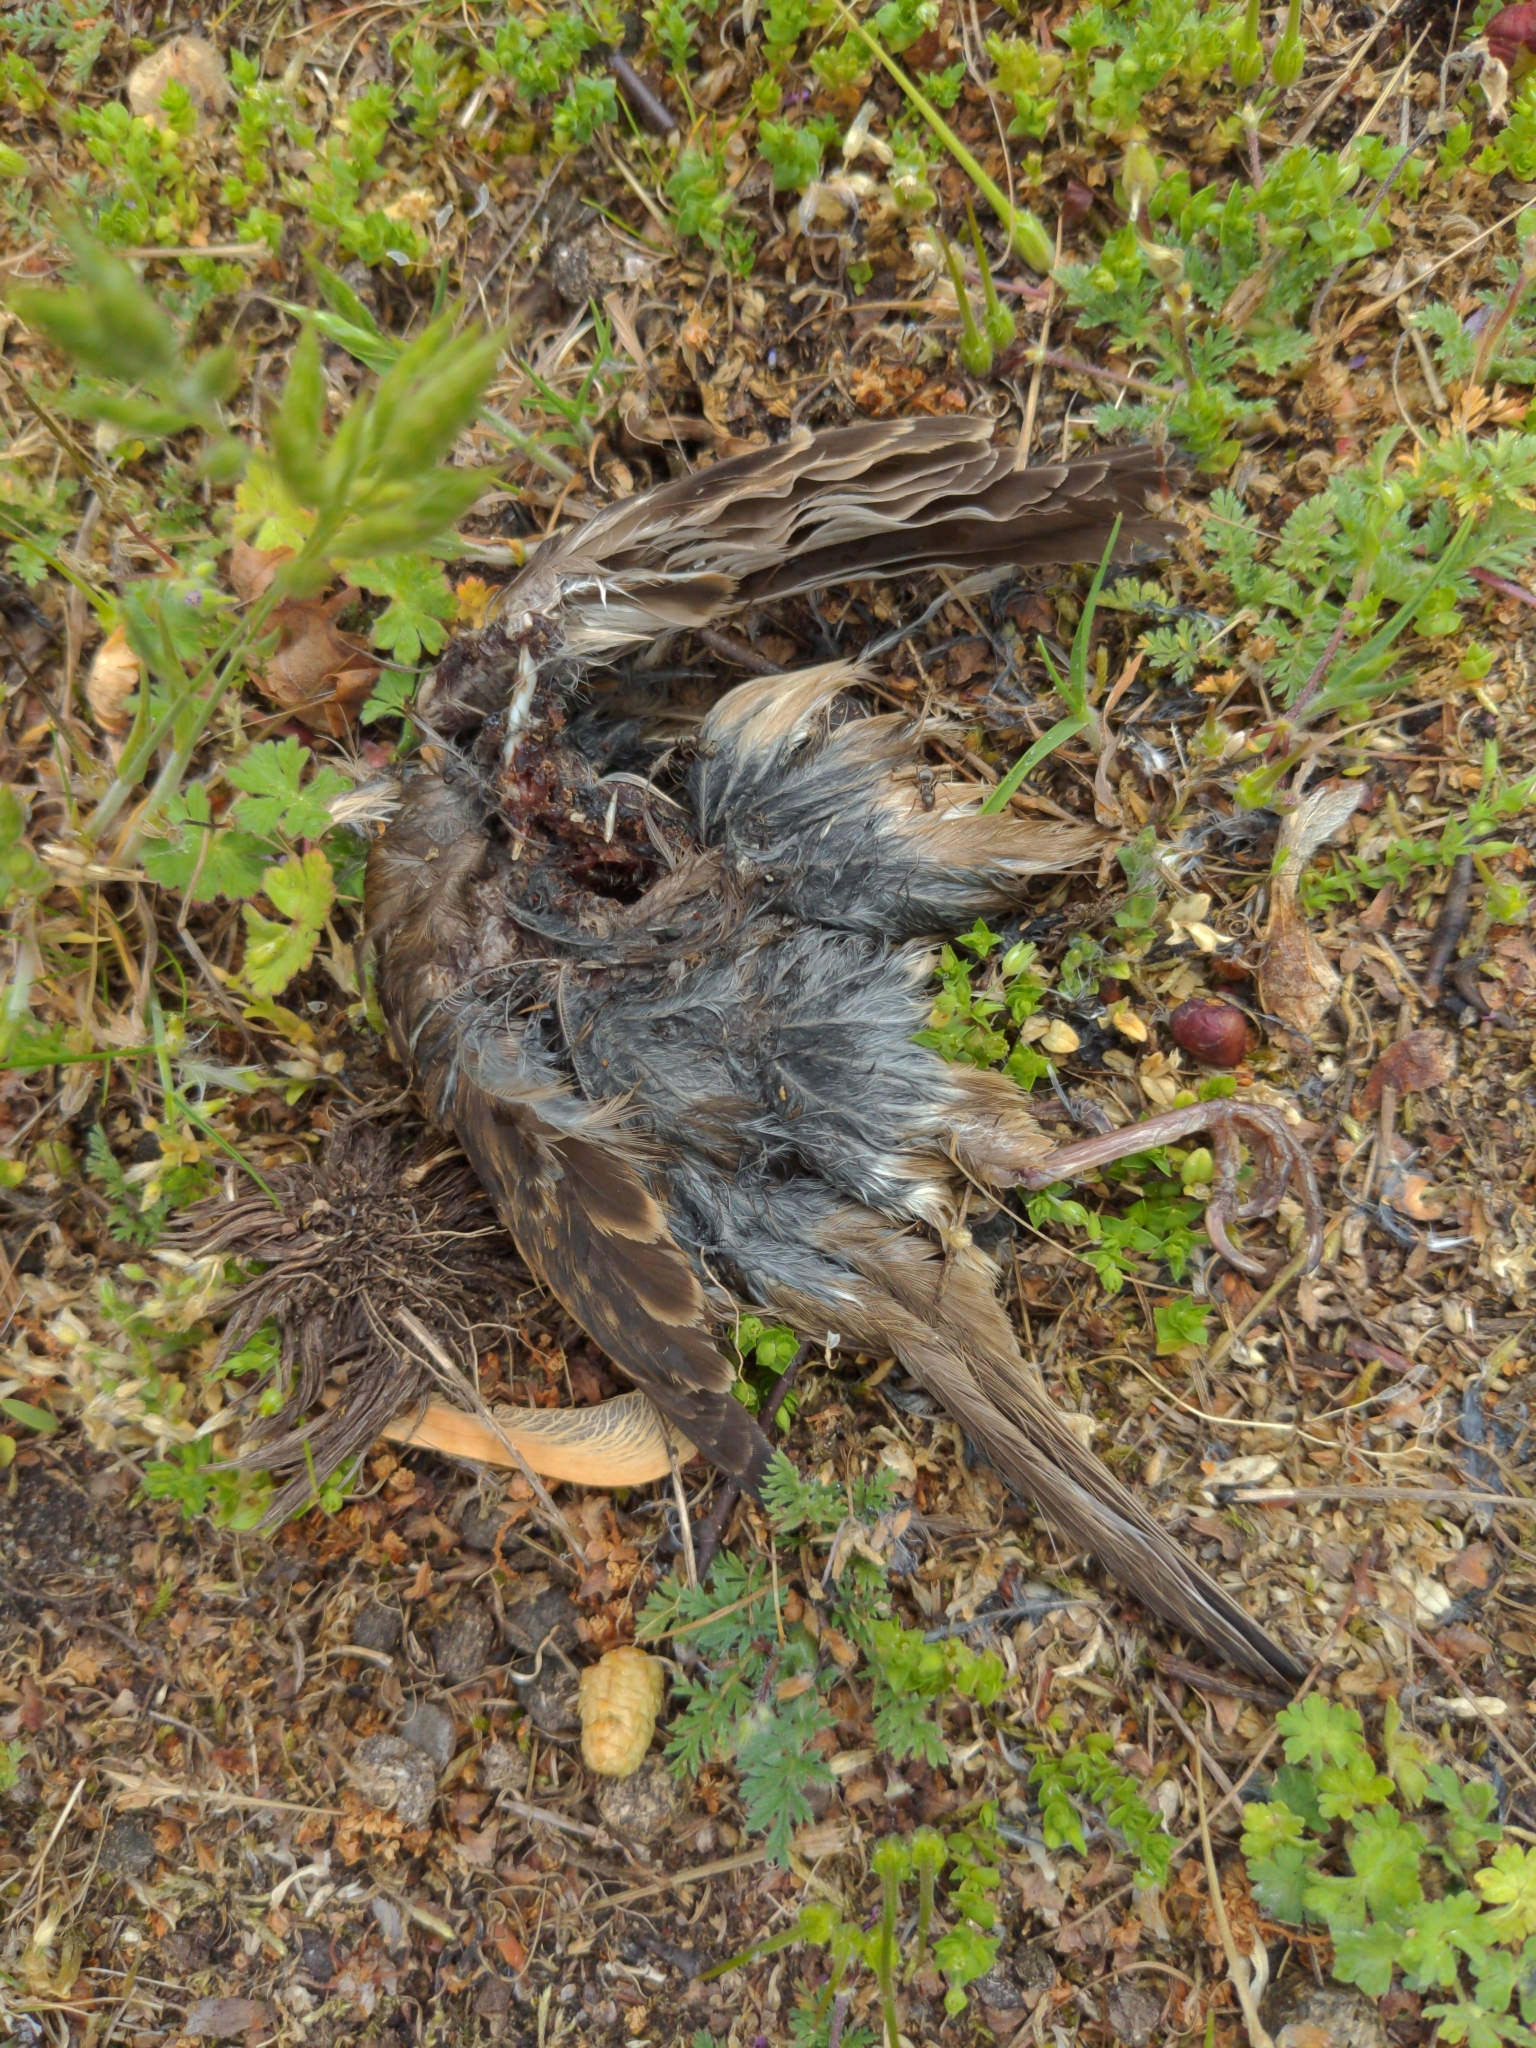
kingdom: Animalia
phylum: Chordata
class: Aves
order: Passeriformes
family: Passeridae
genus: Passer
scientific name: Passer domesticus
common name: House sparrow
